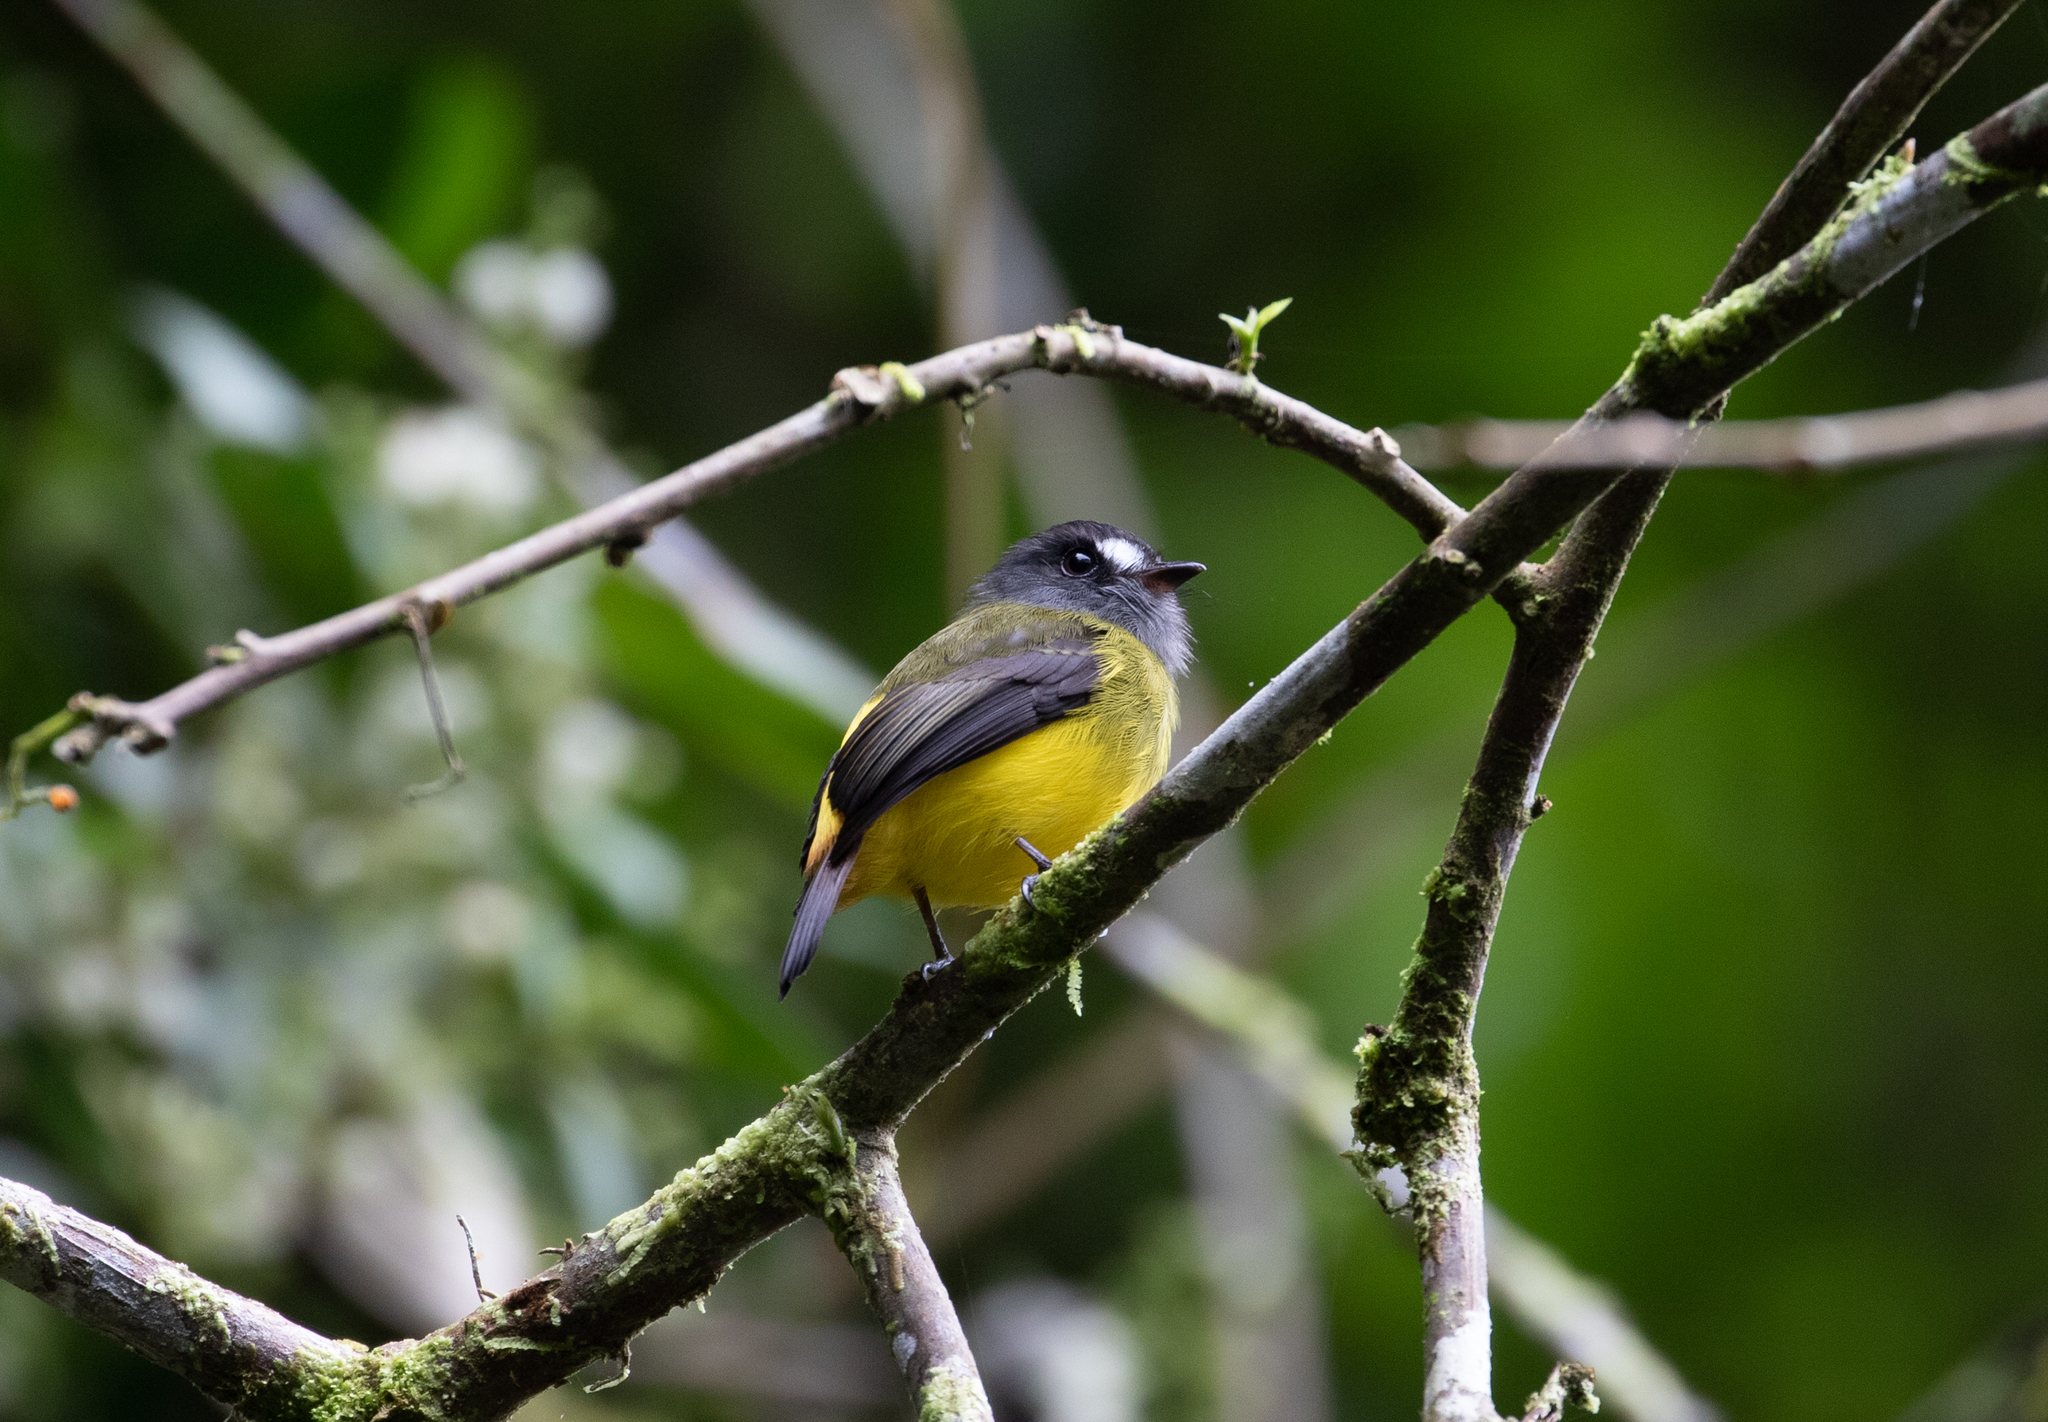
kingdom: Animalia
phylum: Chordata
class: Aves
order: Passeriformes
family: Tyrannidae
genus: Myiotriccus
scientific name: Myiotriccus ornatus
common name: Ornate flycatcher
